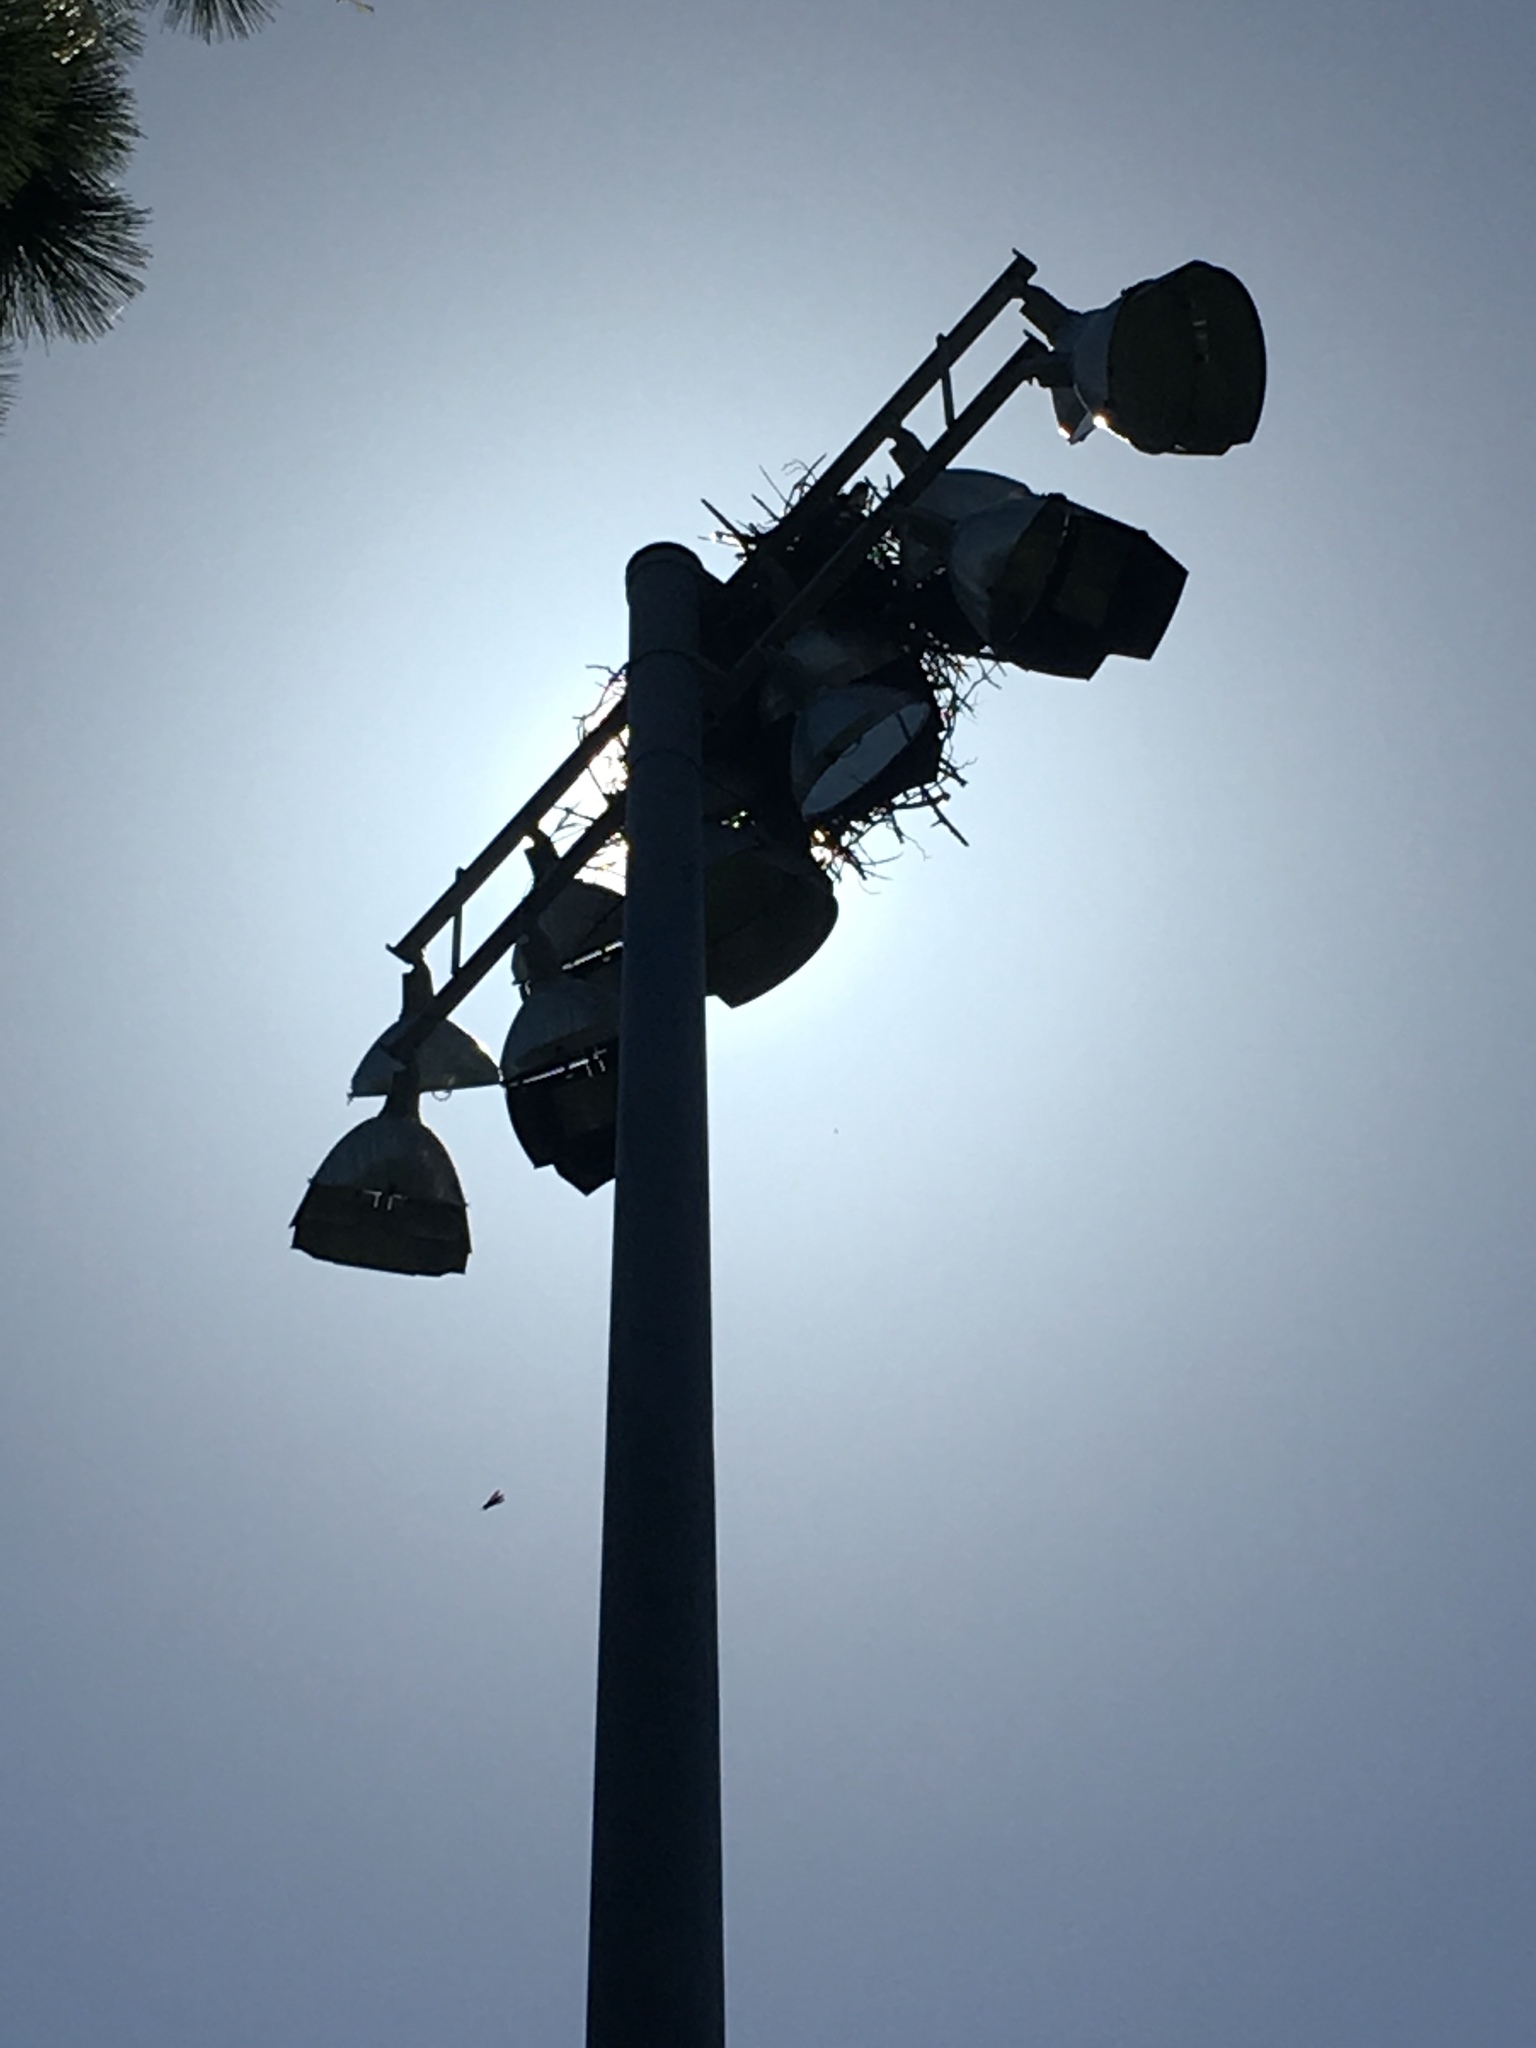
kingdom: Animalia
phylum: Chordata
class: Aves
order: Accipitriformes
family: Pandionidae
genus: Pandion
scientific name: Pandion haliaetus
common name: Osprey
